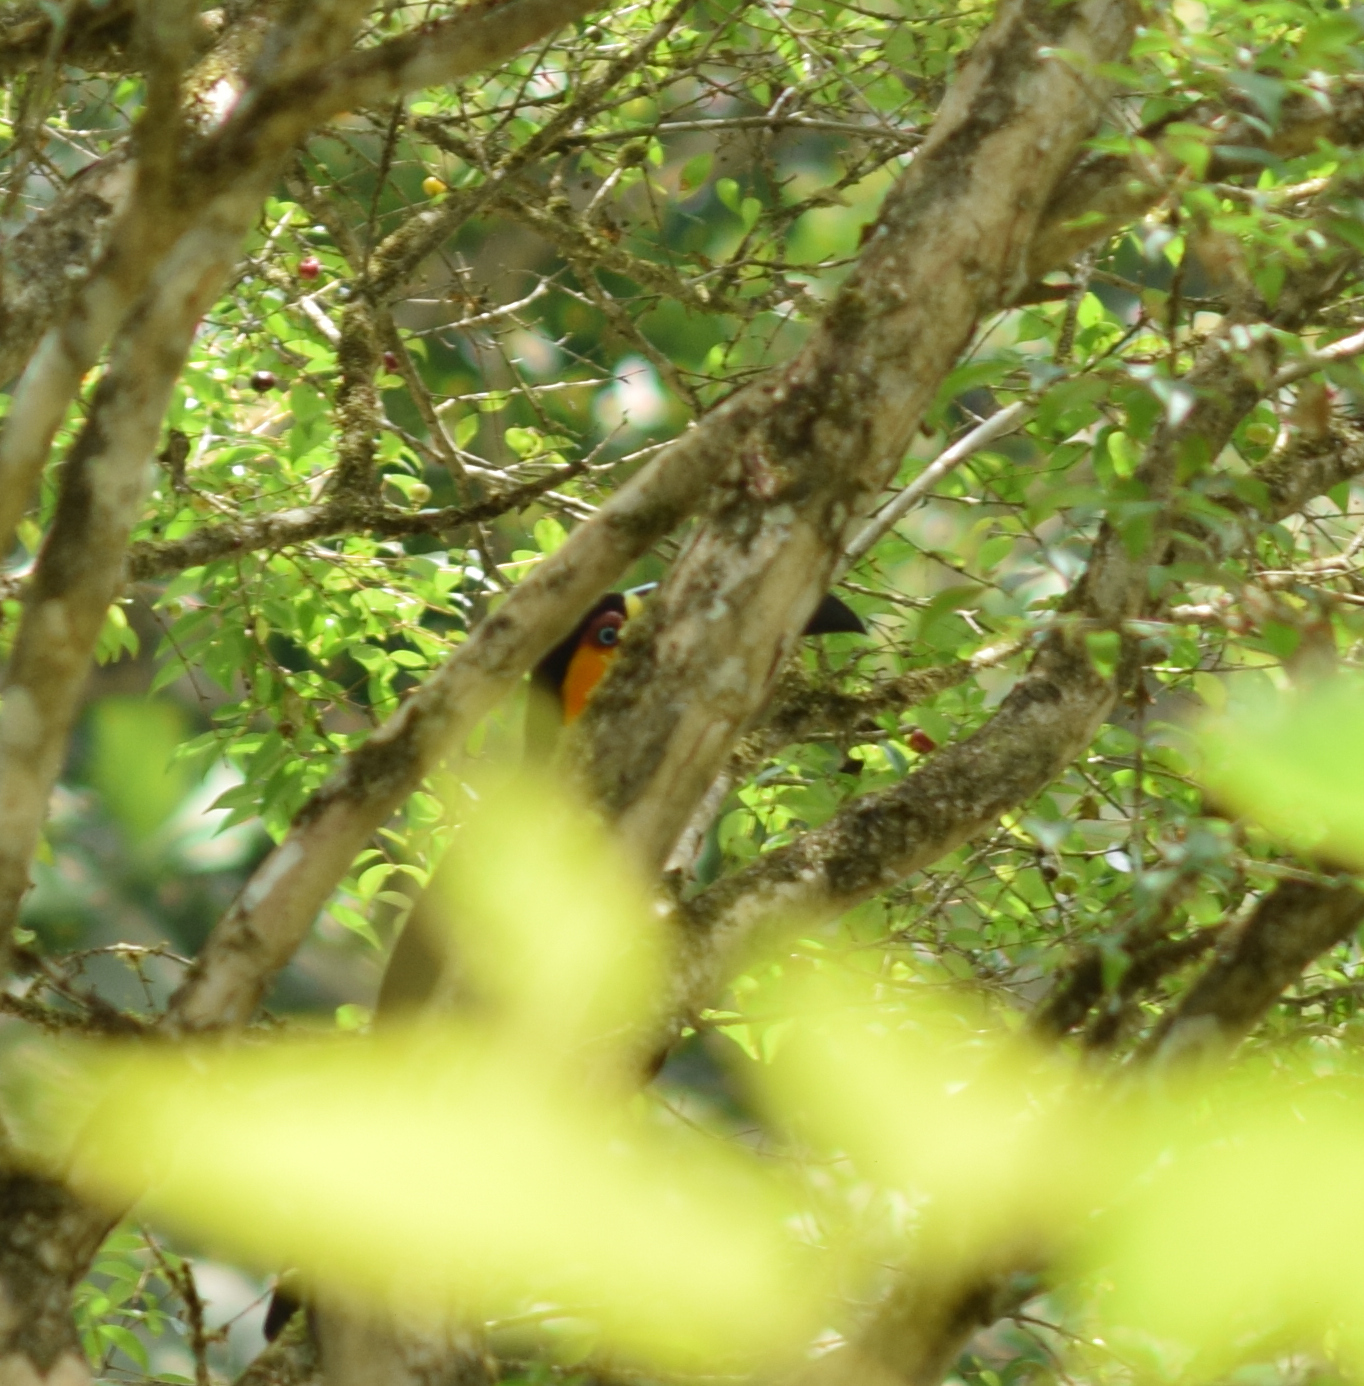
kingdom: Animalia
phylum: Chordata
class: Aves
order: Piciformes
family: Ramphastidae
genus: Ramphastos
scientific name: Ramphastos vitellinus
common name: Channel-billed toucan
